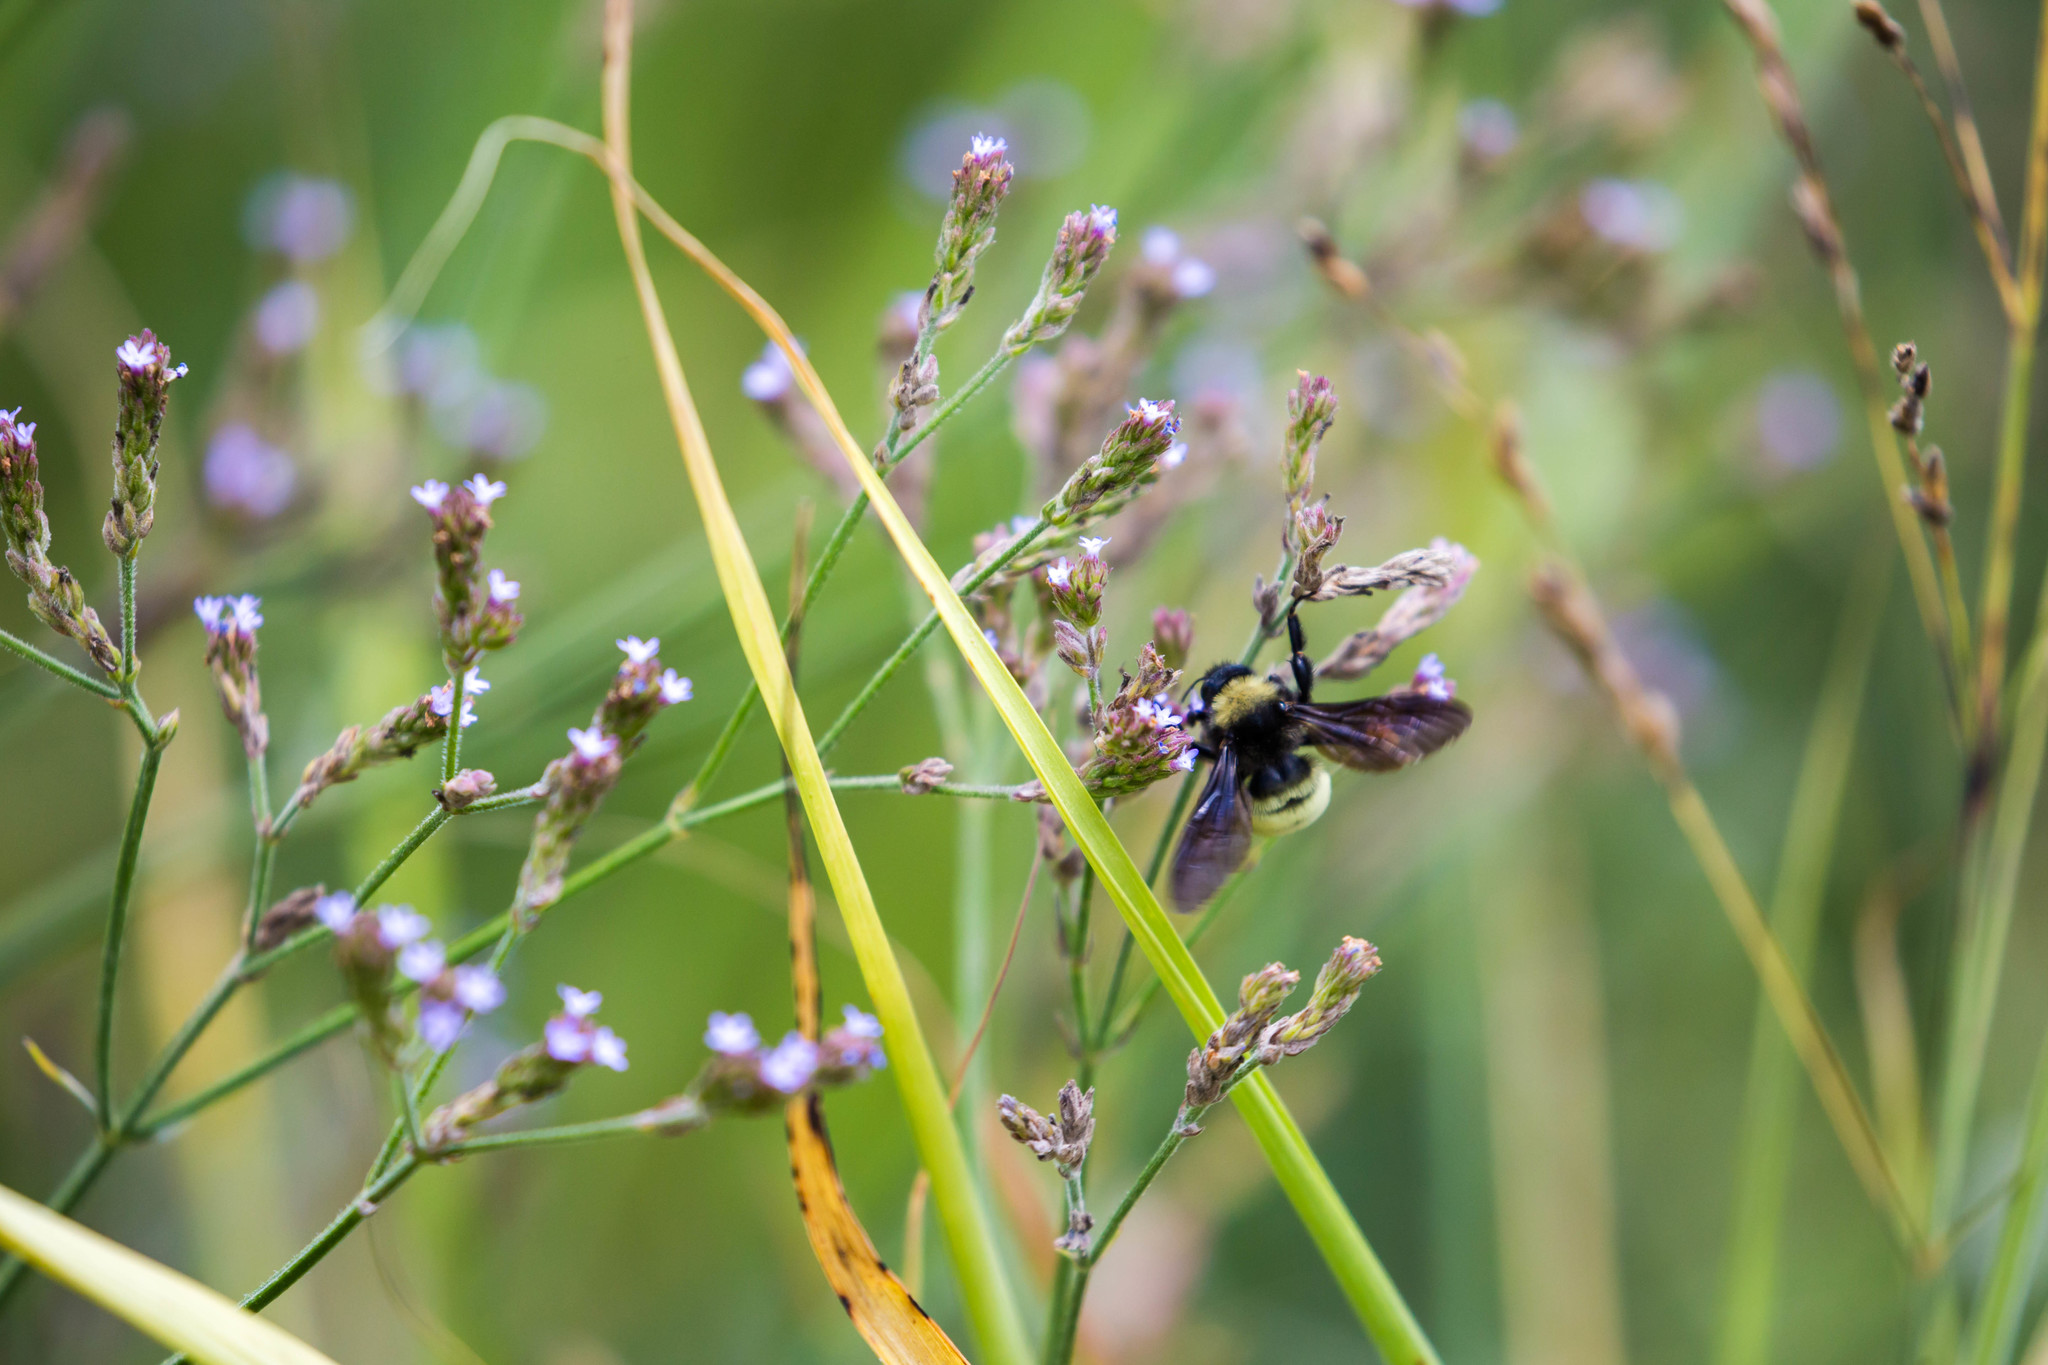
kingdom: Animalia
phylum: Arthropoda
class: Insecta
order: Hymenoptera
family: Apidae
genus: Bombus
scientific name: Bombus pensylvanicus
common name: Bumble bee
